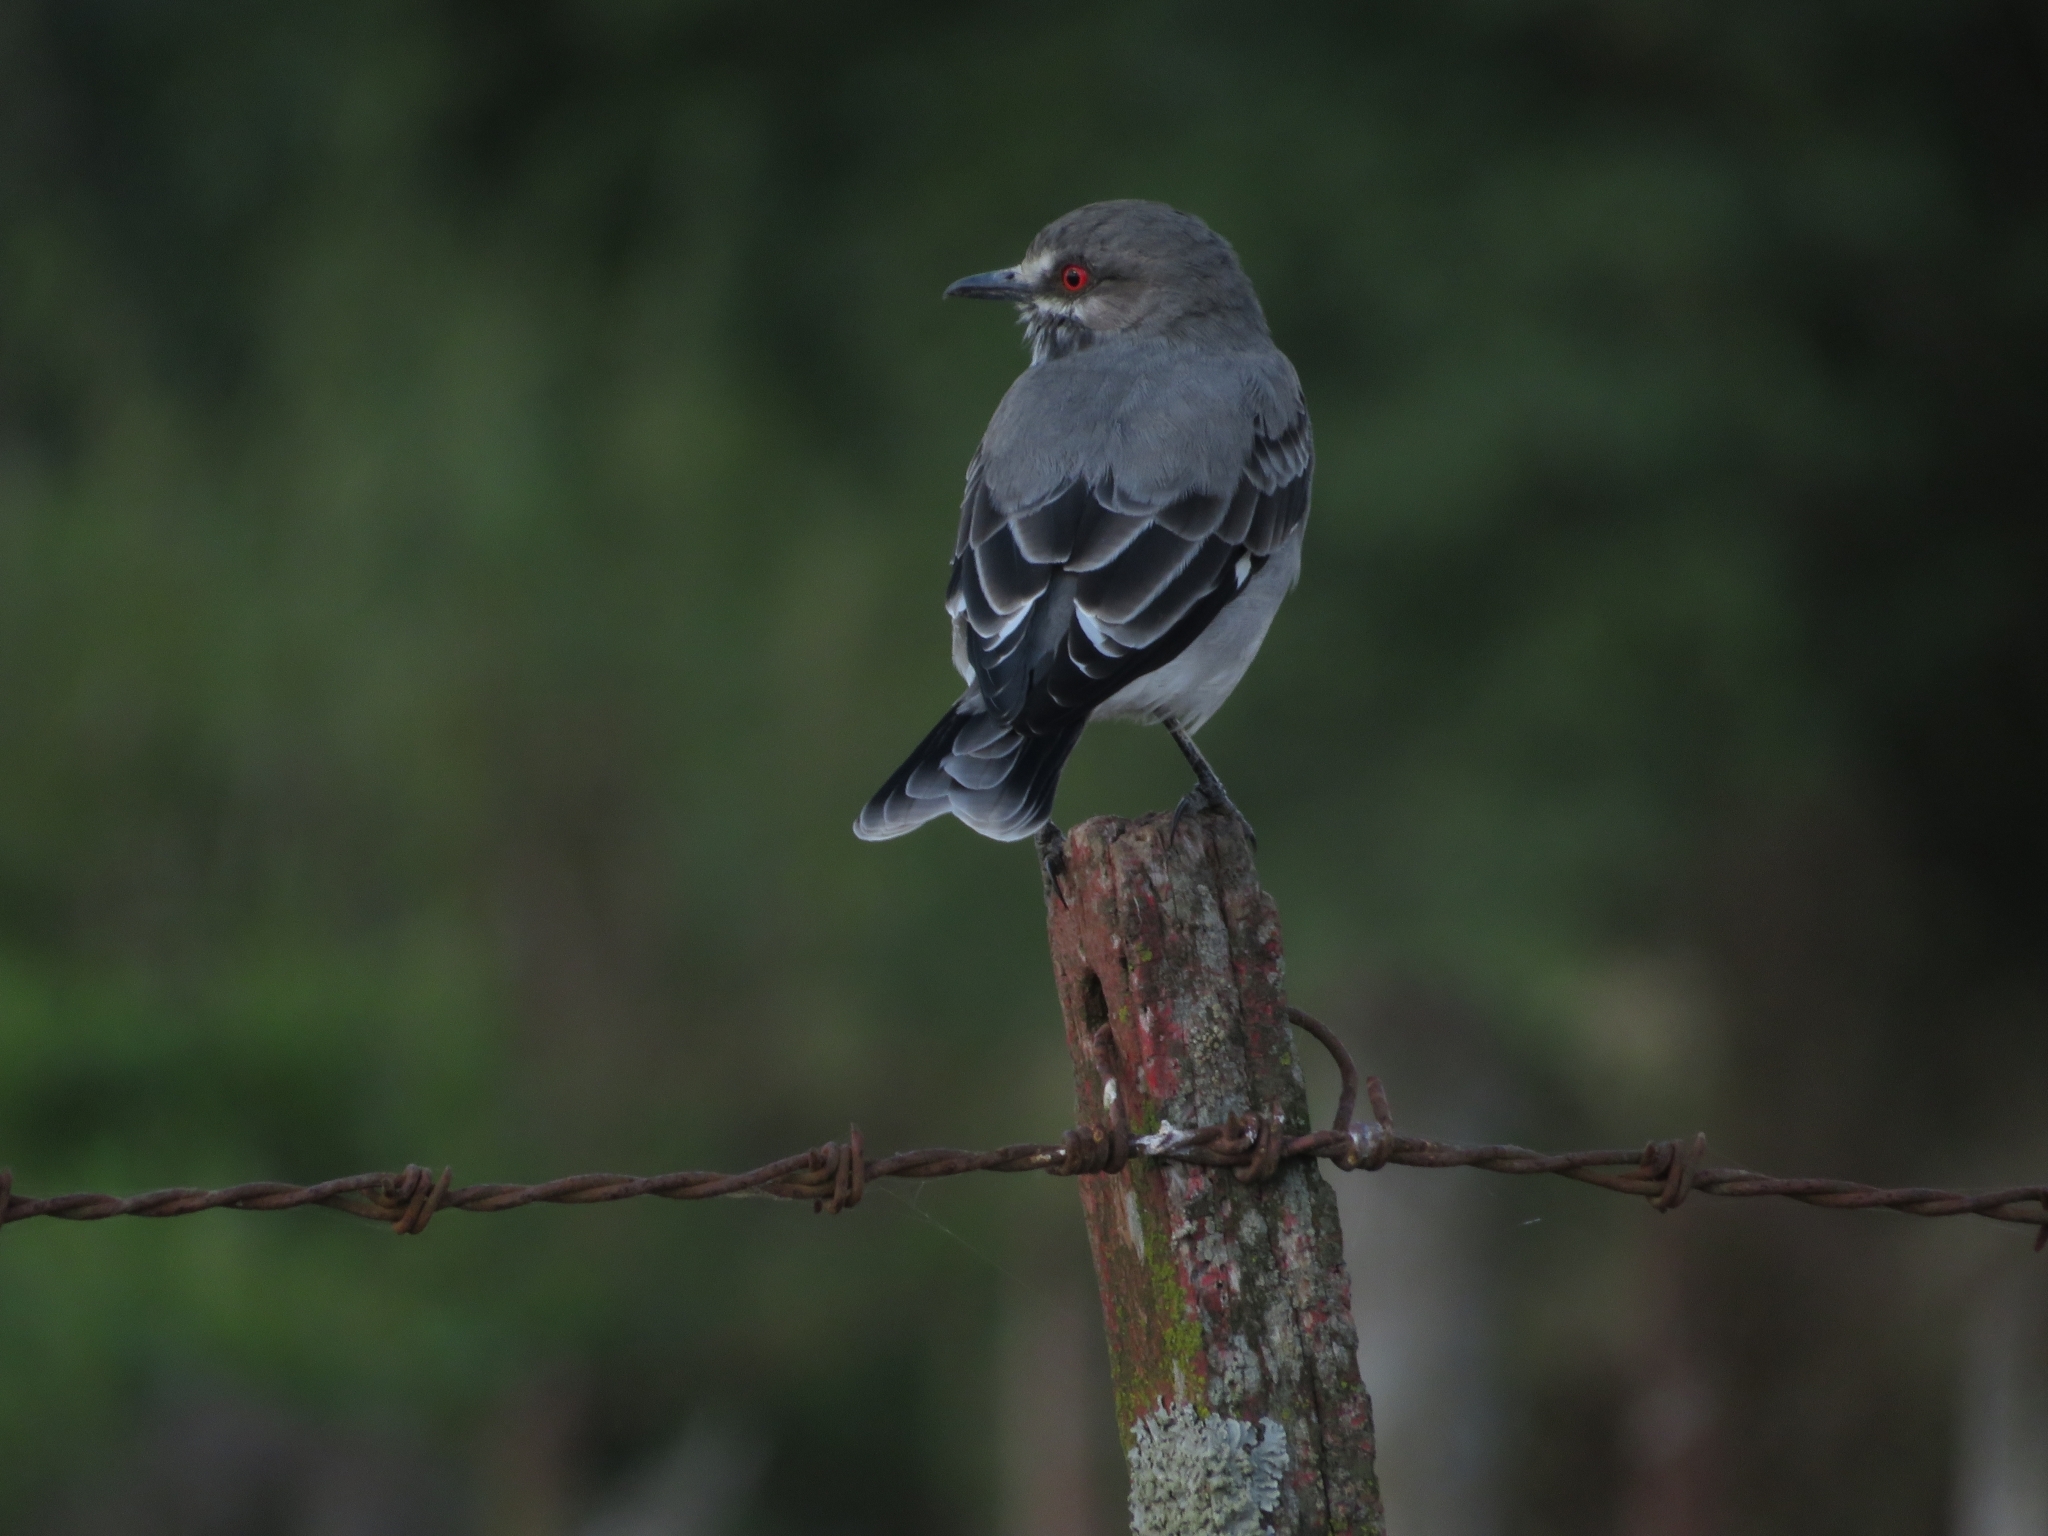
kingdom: Animalia
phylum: Chordata
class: Aves
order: Passeriformes
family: Tyrannidae
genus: Xolmis
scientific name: Xolmis cinereus
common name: Grey monjita
